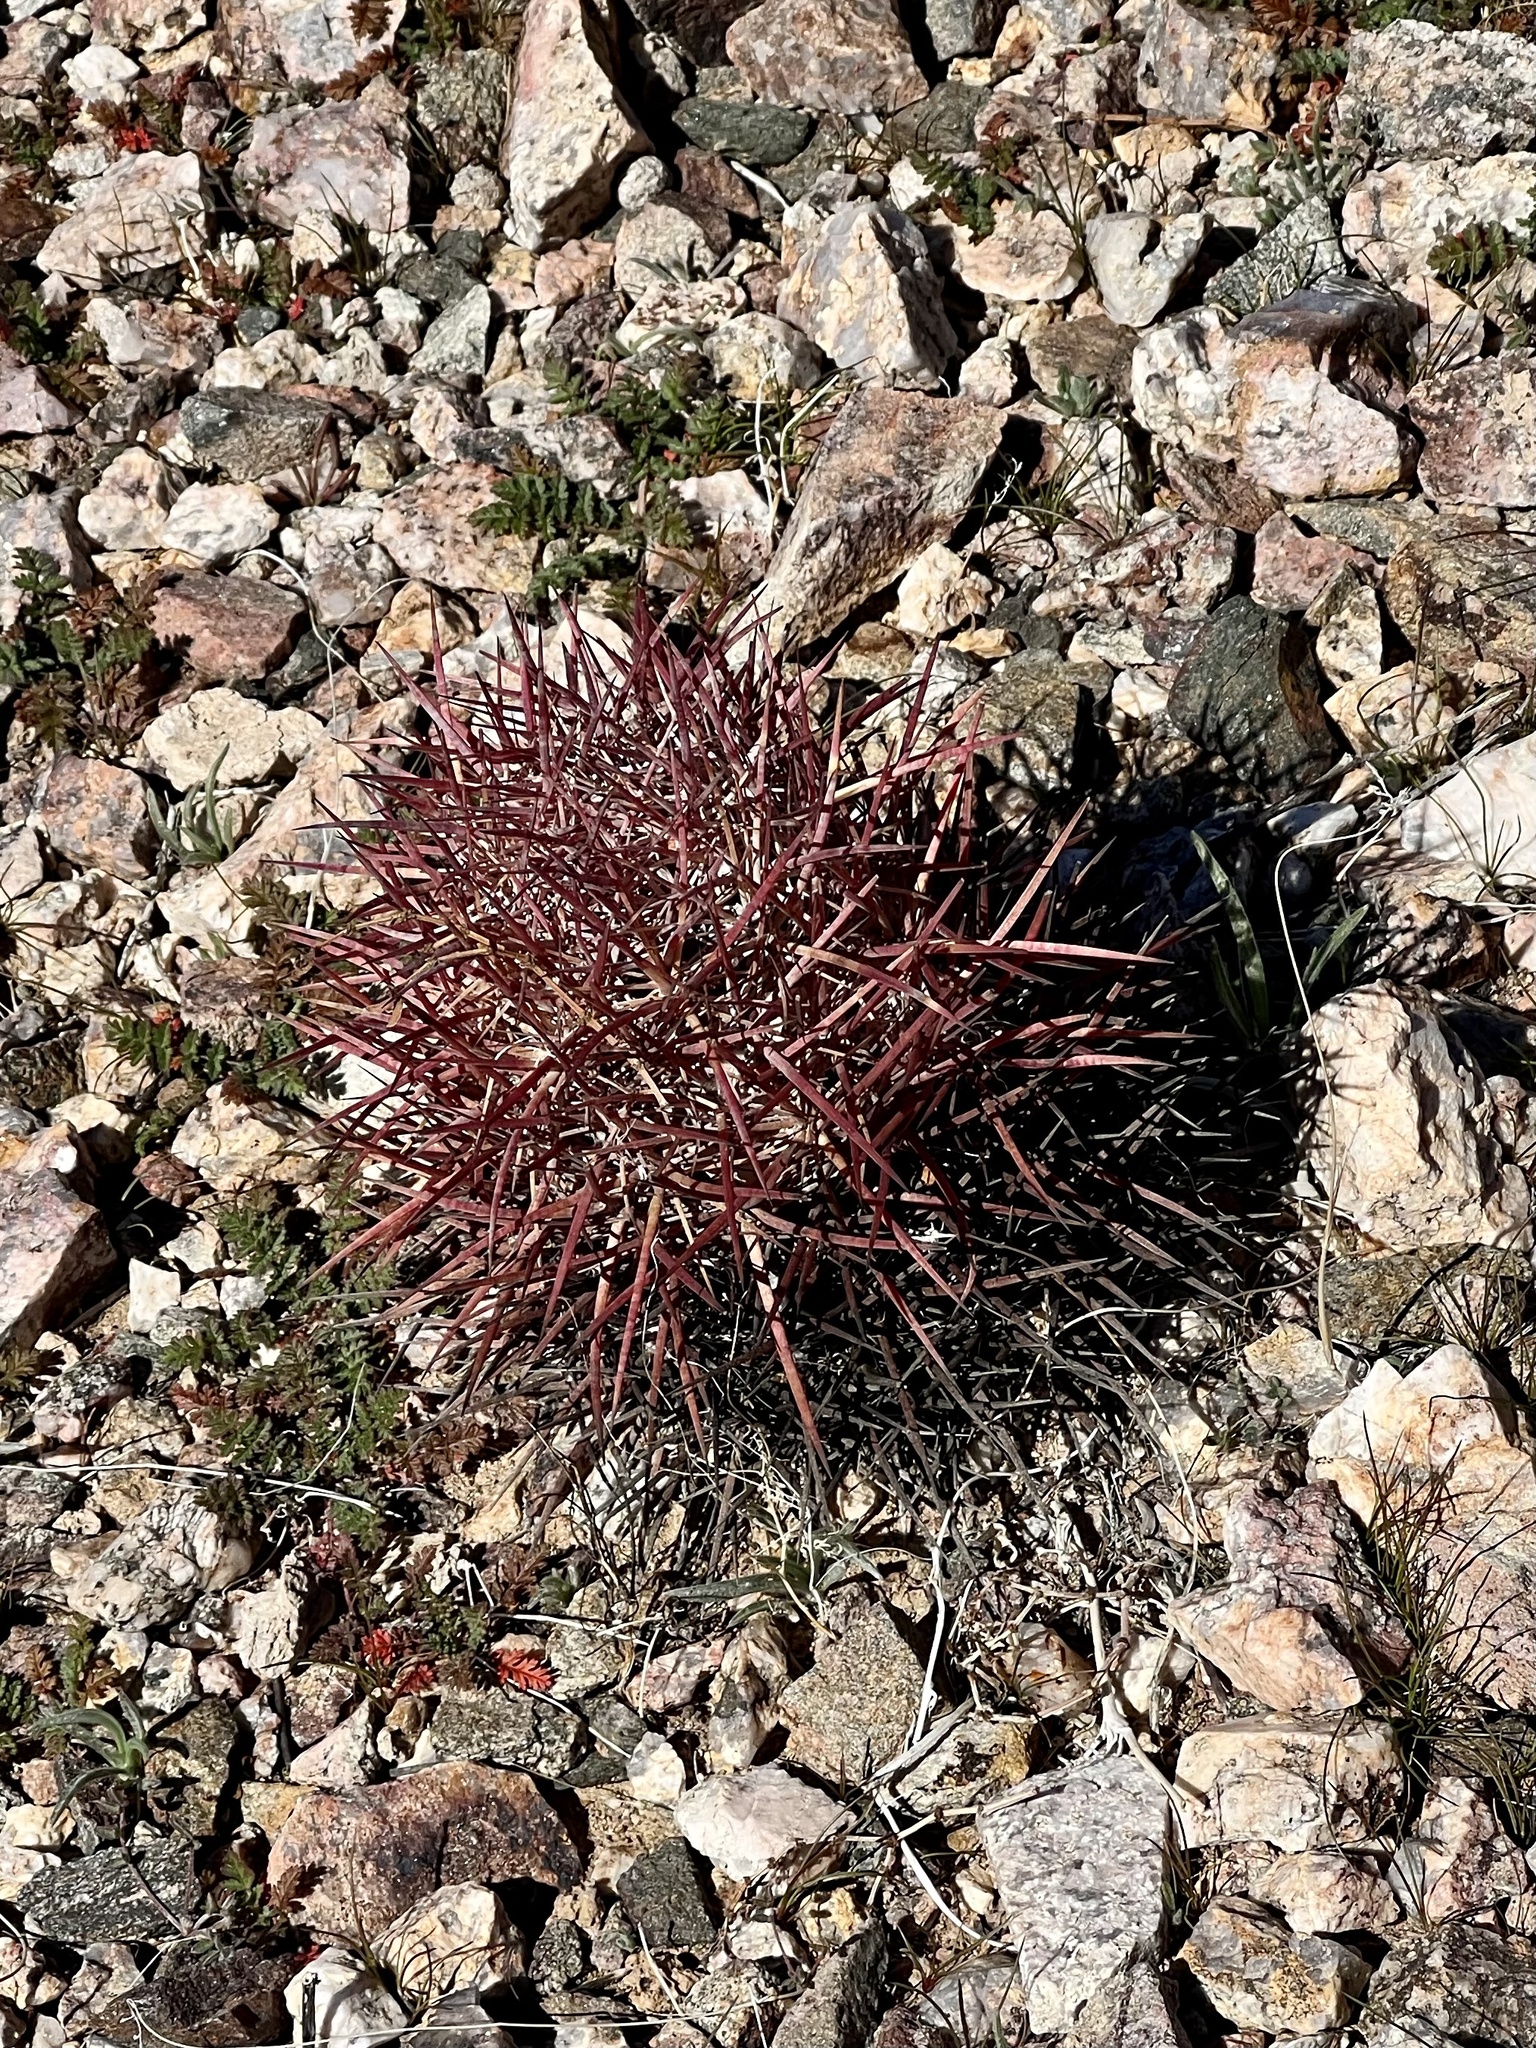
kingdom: Plantae
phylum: Tracheophyta
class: Magnoliopsida
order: Caryophyllales
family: Cactaceae
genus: Sclerocactus
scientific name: Sclerocactus johnsonii
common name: Eight-spine fishhook cactus
